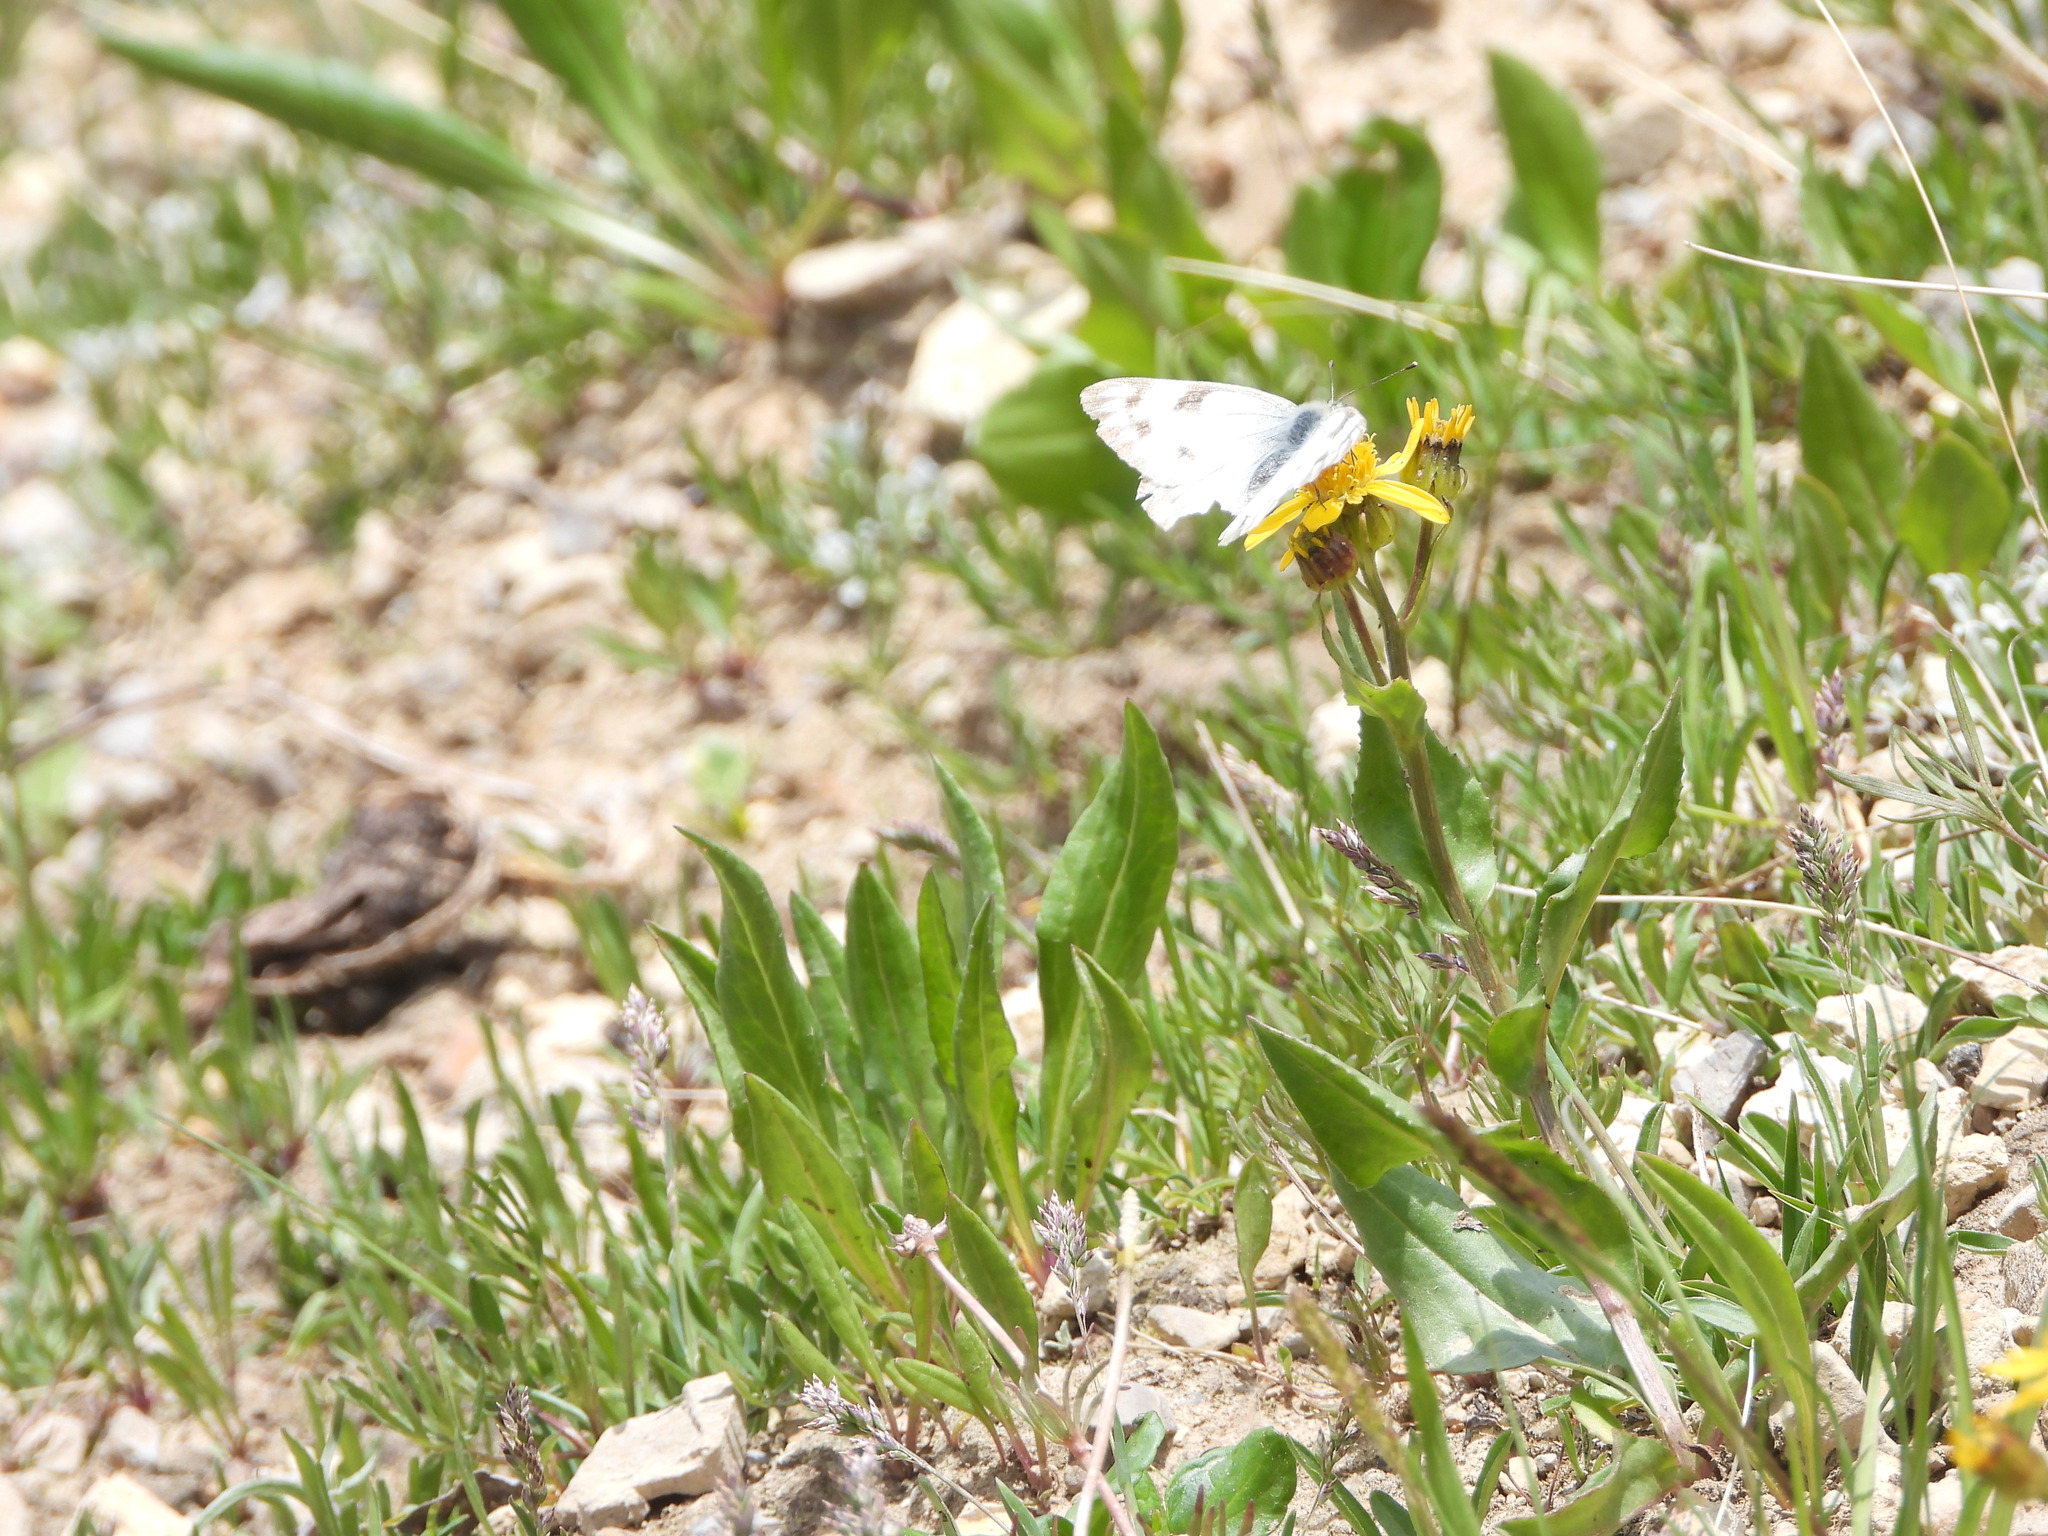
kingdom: Animalia
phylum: Arthropoda
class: Insecta
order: Lepidoptera
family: Pieridae
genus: Pontia
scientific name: Pontia occidentalis
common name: Western white
